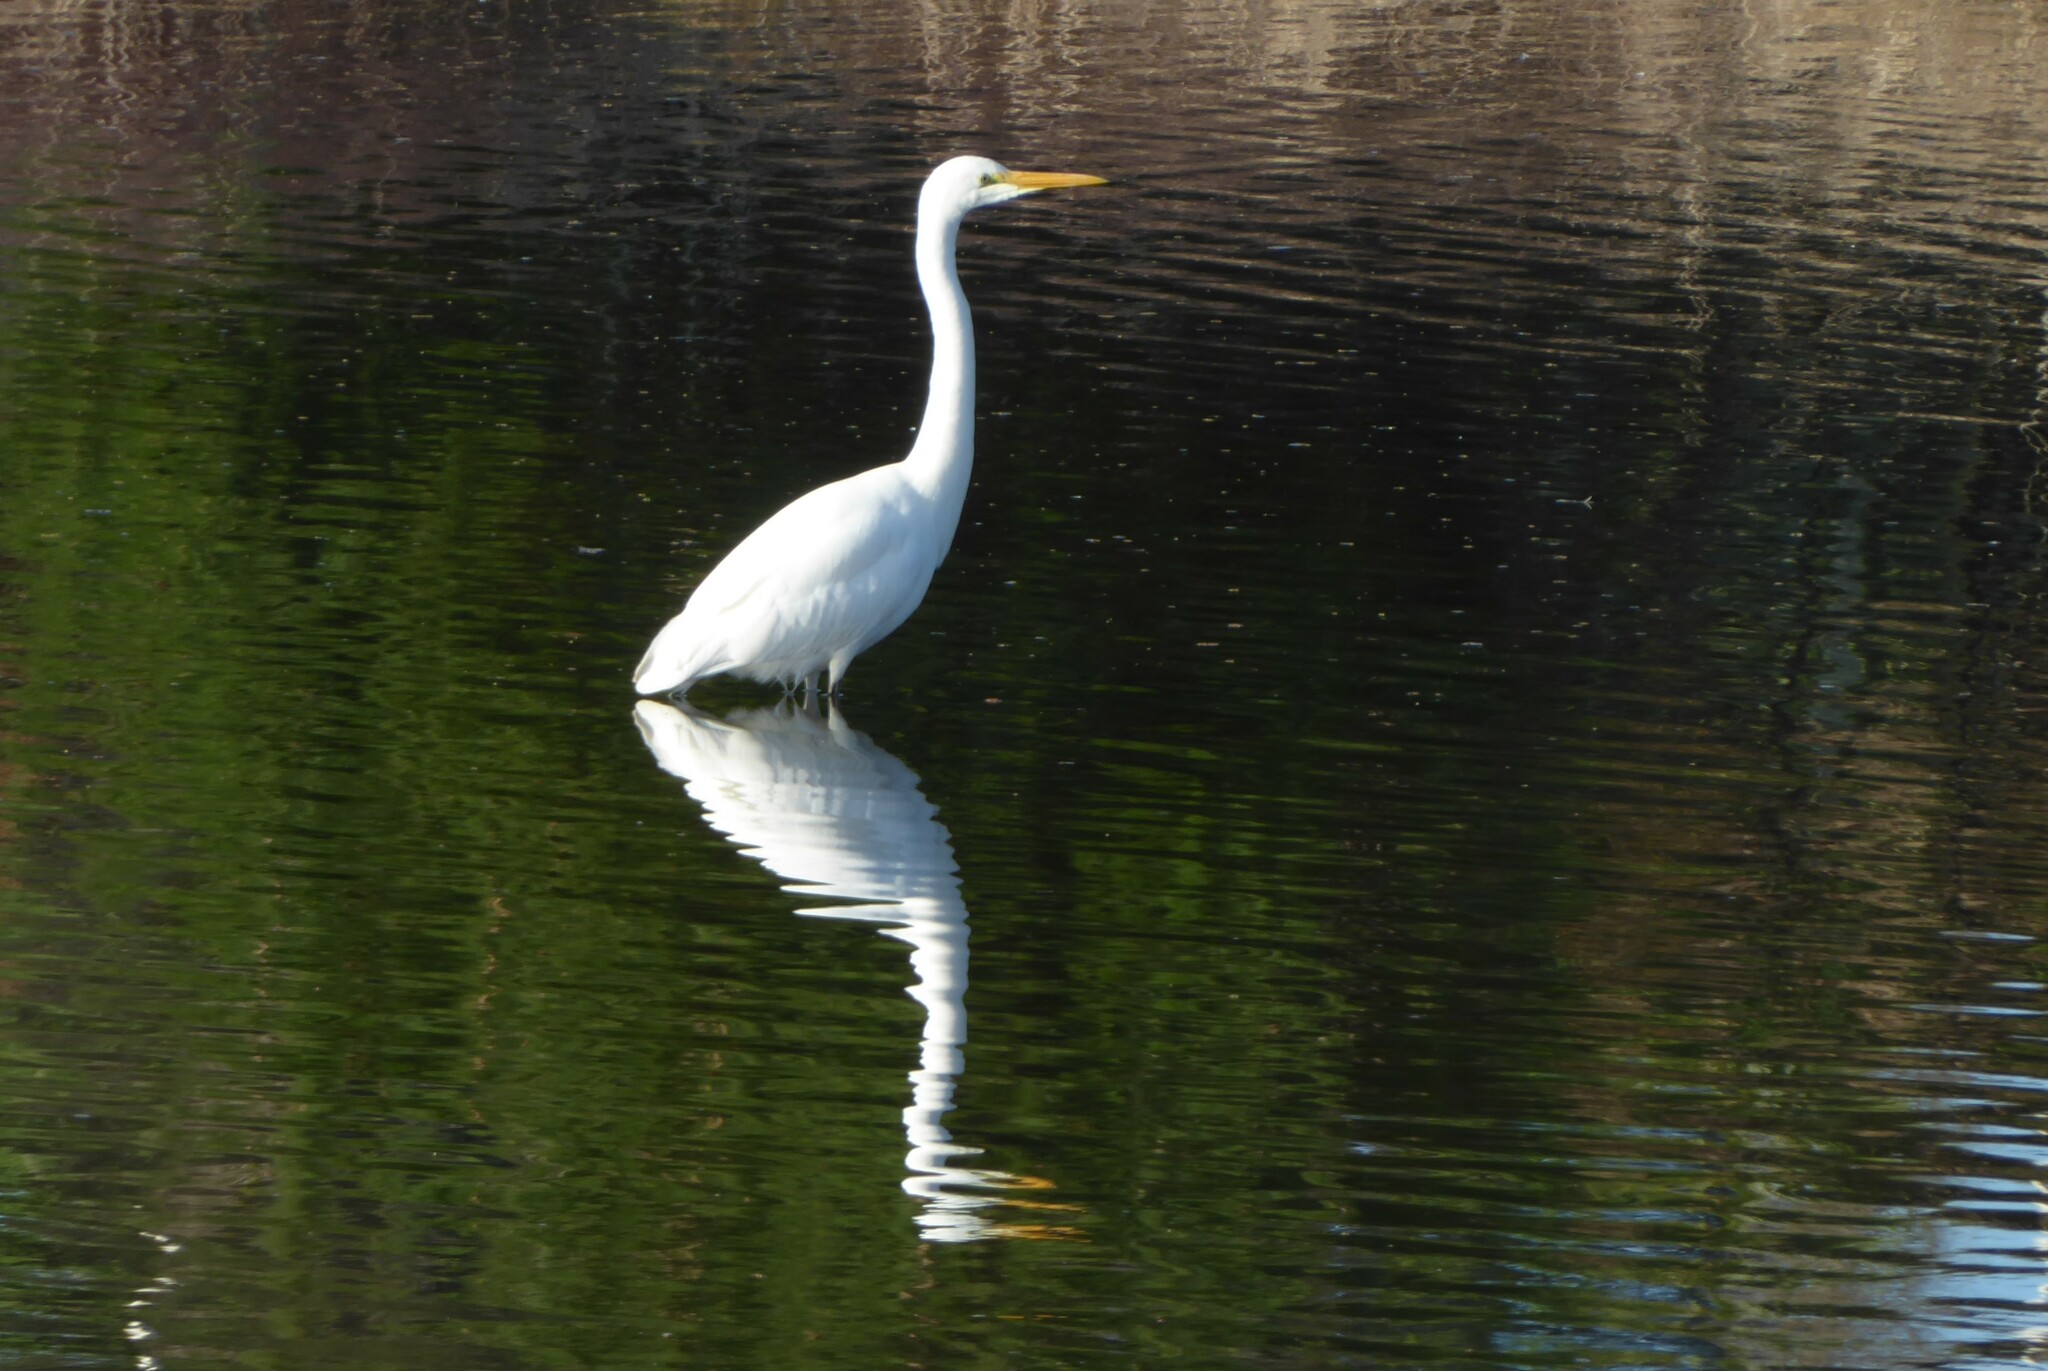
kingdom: Animalia
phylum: Chordata
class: Aves
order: Pelecaniformes
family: Ardeidae
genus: Ardea
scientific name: Ardea modesta
